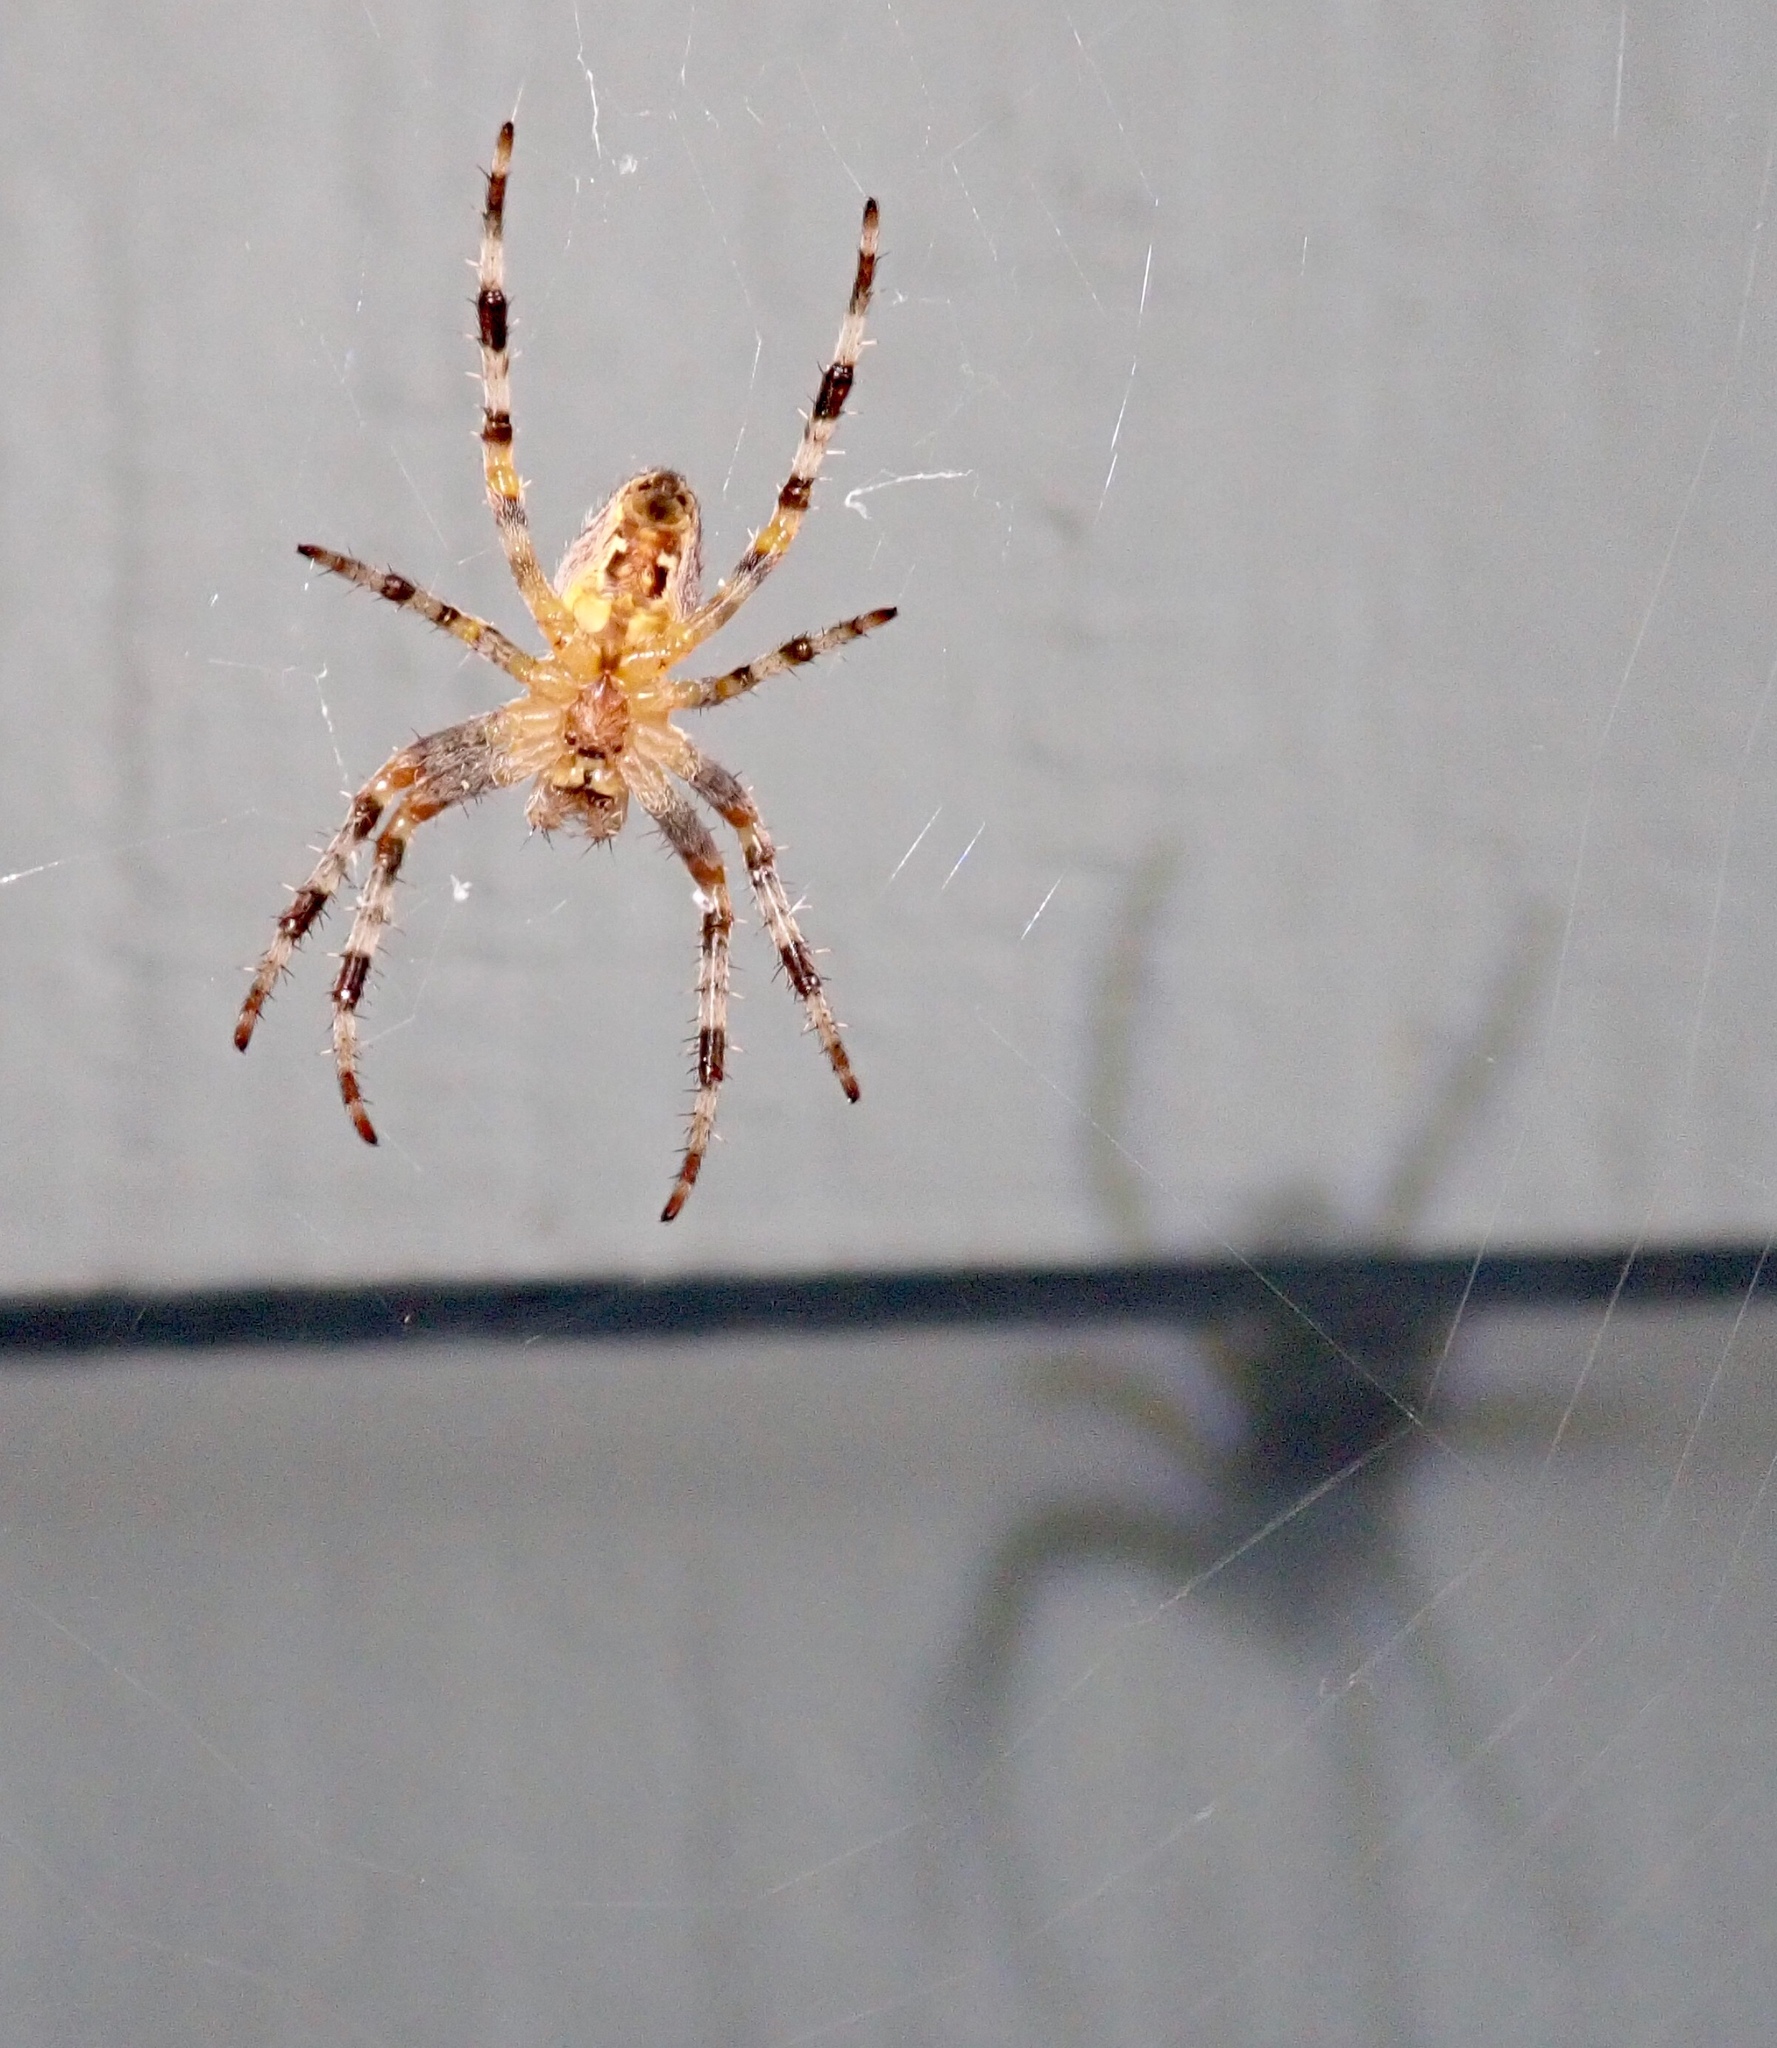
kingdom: Animalia
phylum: Arthropoda
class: Arachnida
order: Araneae
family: Araneidae
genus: Araneus
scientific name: Araneus diadematus
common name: Cross orbweaver
